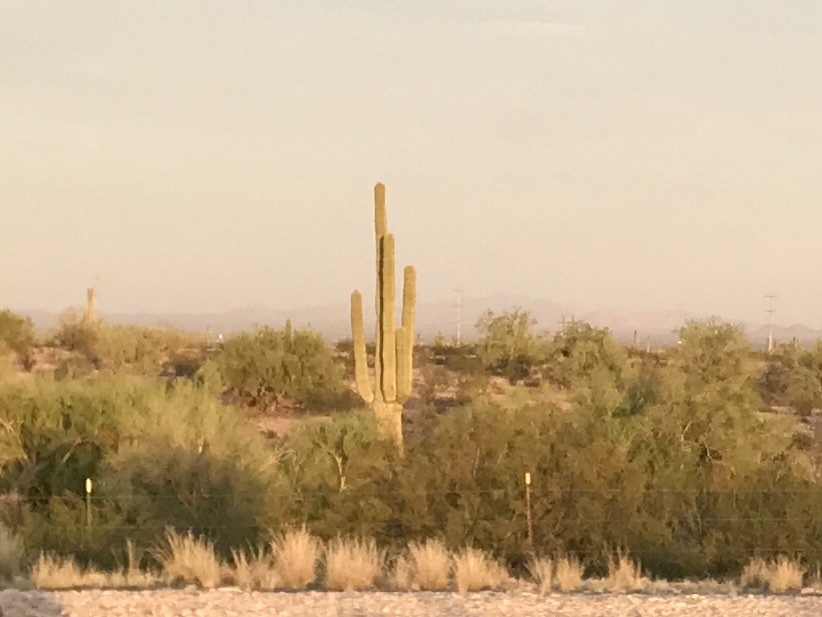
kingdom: Plantae
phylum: Tracheophyta
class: Magnoliopsida
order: Caryophyllales
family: Cactaceae
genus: Carnegiea
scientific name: Carnegiea gigantea
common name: Saguaro
